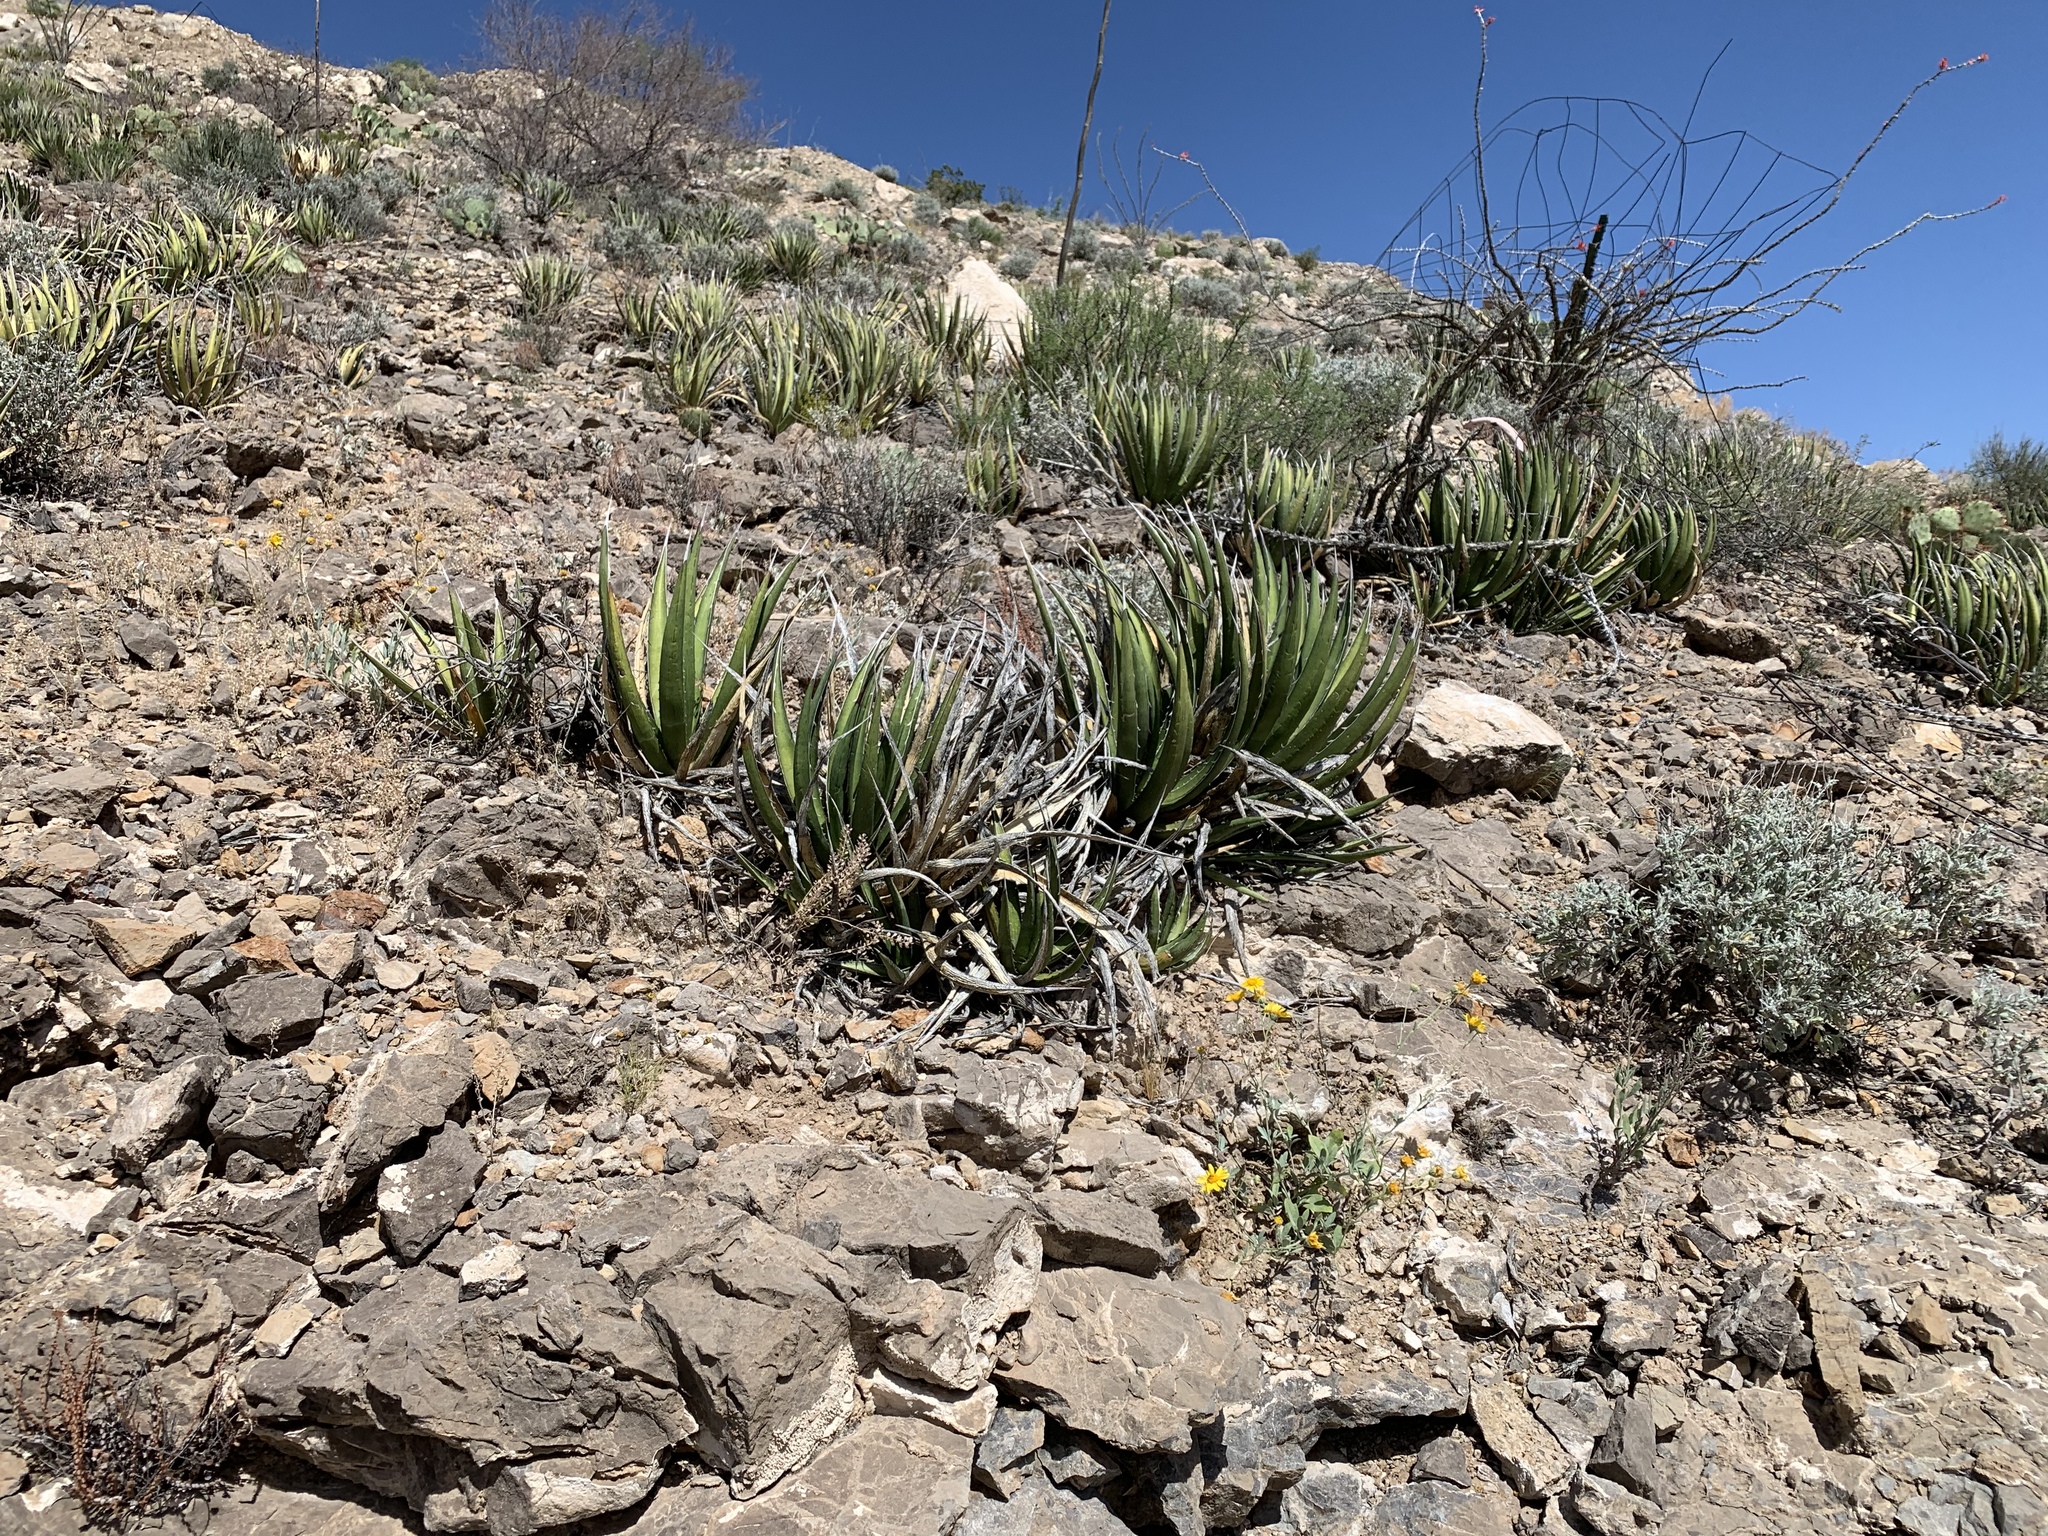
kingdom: Plantae
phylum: Tracheophyta
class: Liliopsida
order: Asparagales
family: Asparagaceae
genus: Agave
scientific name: Agave lechuguilla
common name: Lecheguilla agave
